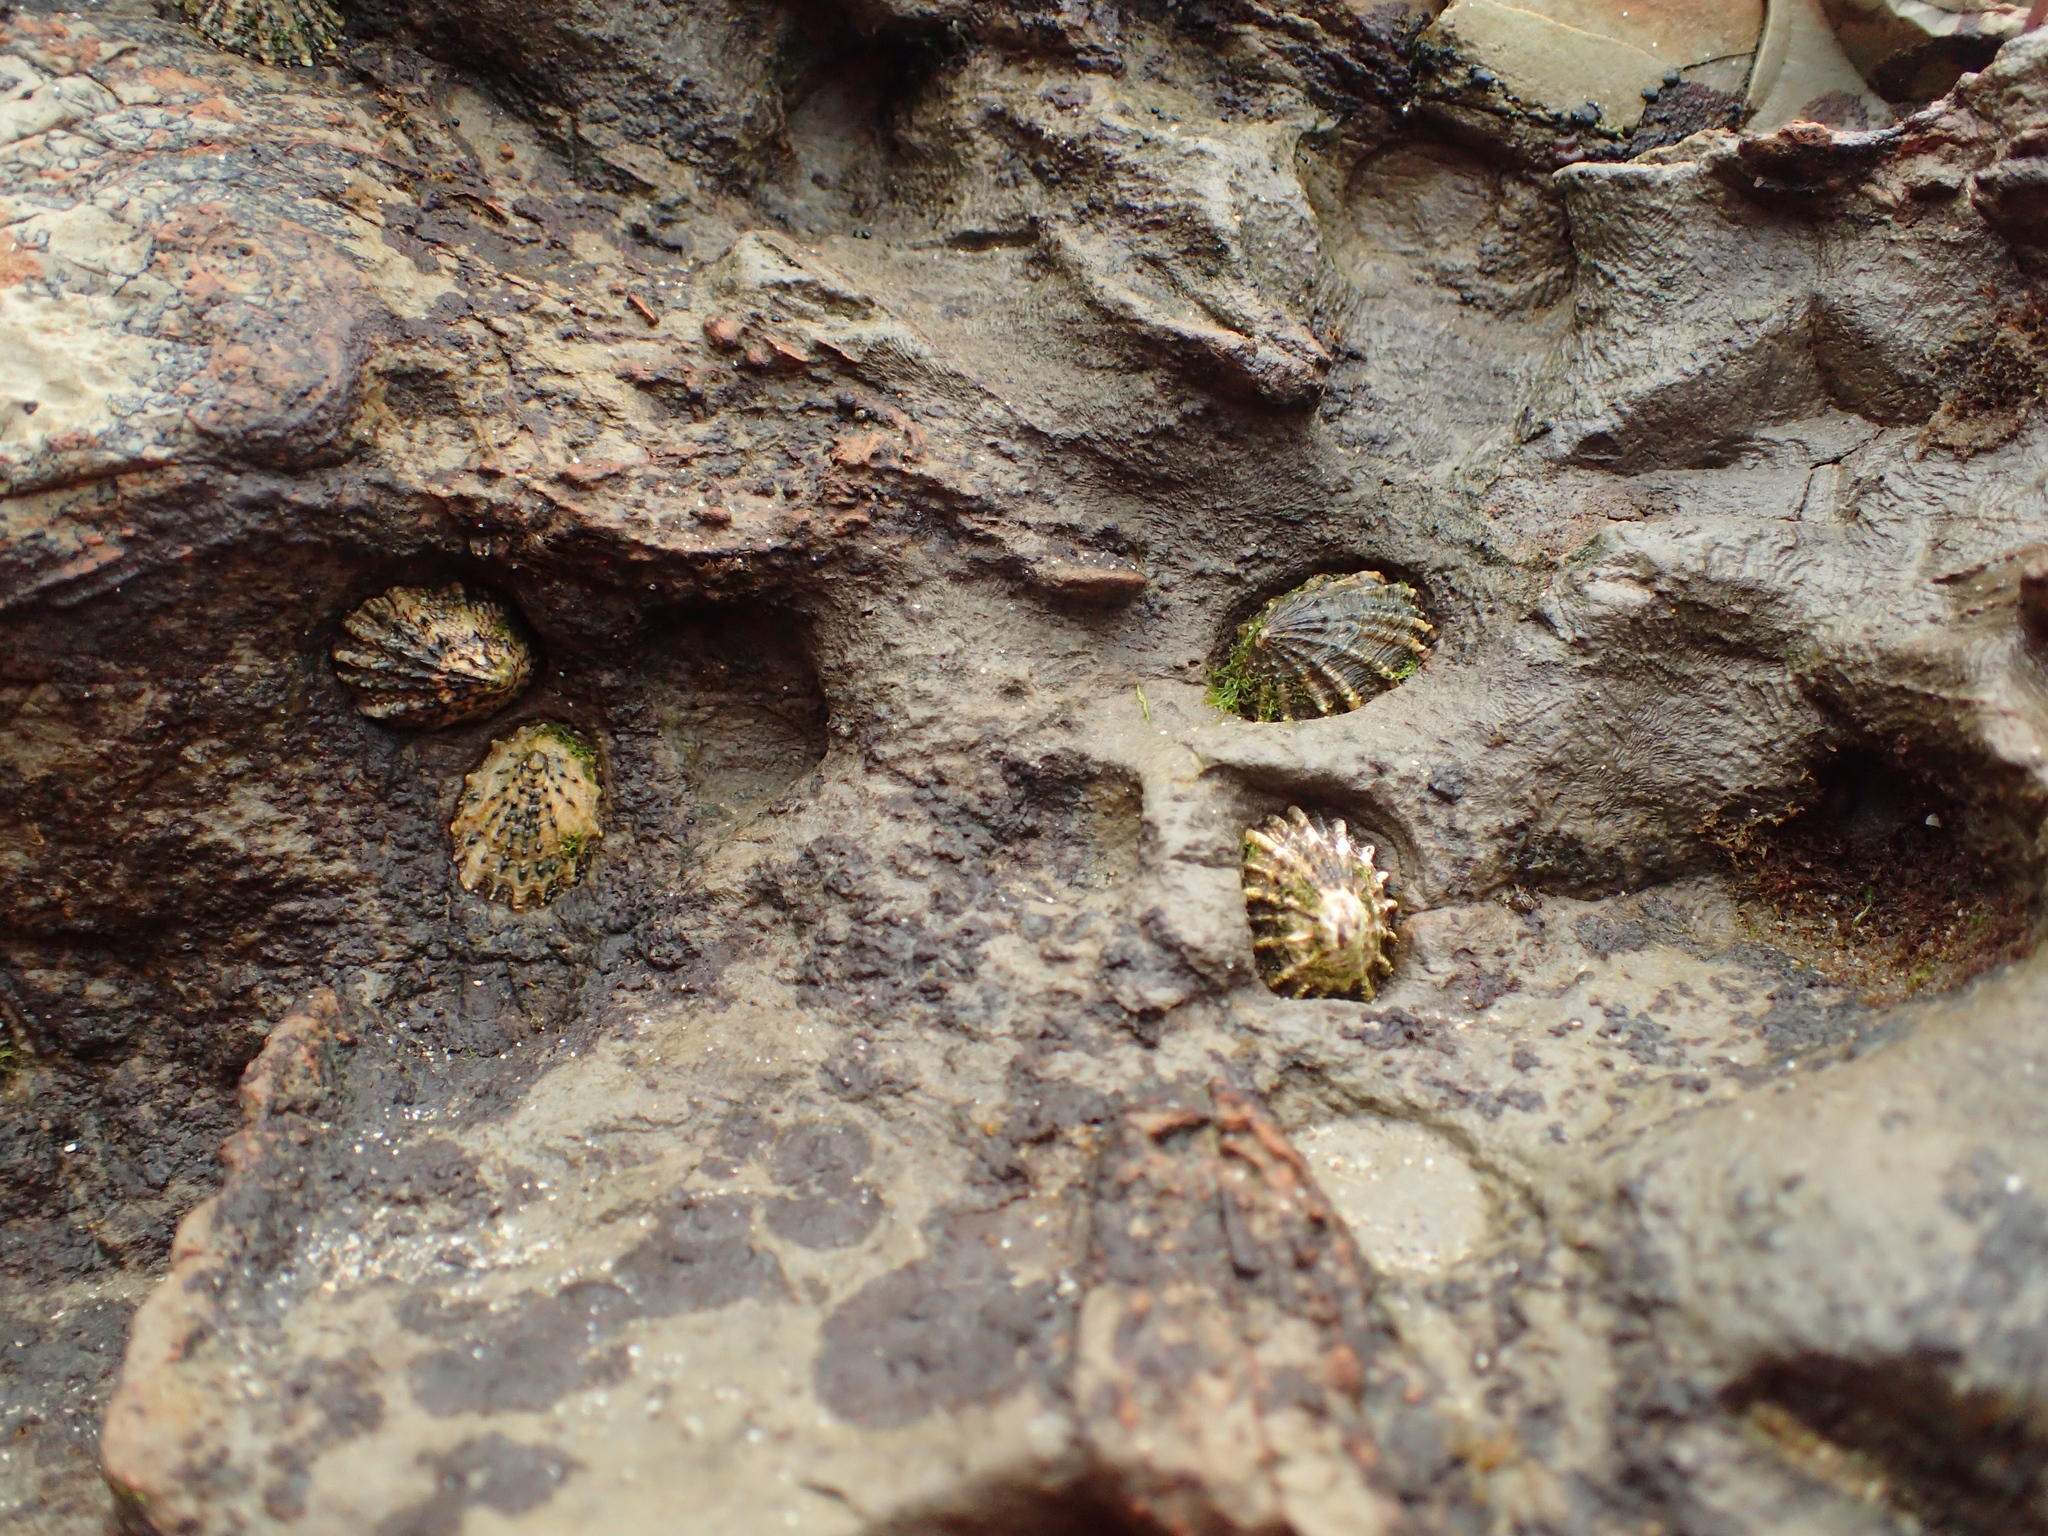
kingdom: Animalia
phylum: Mollusca
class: Gastropoda
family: Lottiidae
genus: Lottia
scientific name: Lottia scabra
